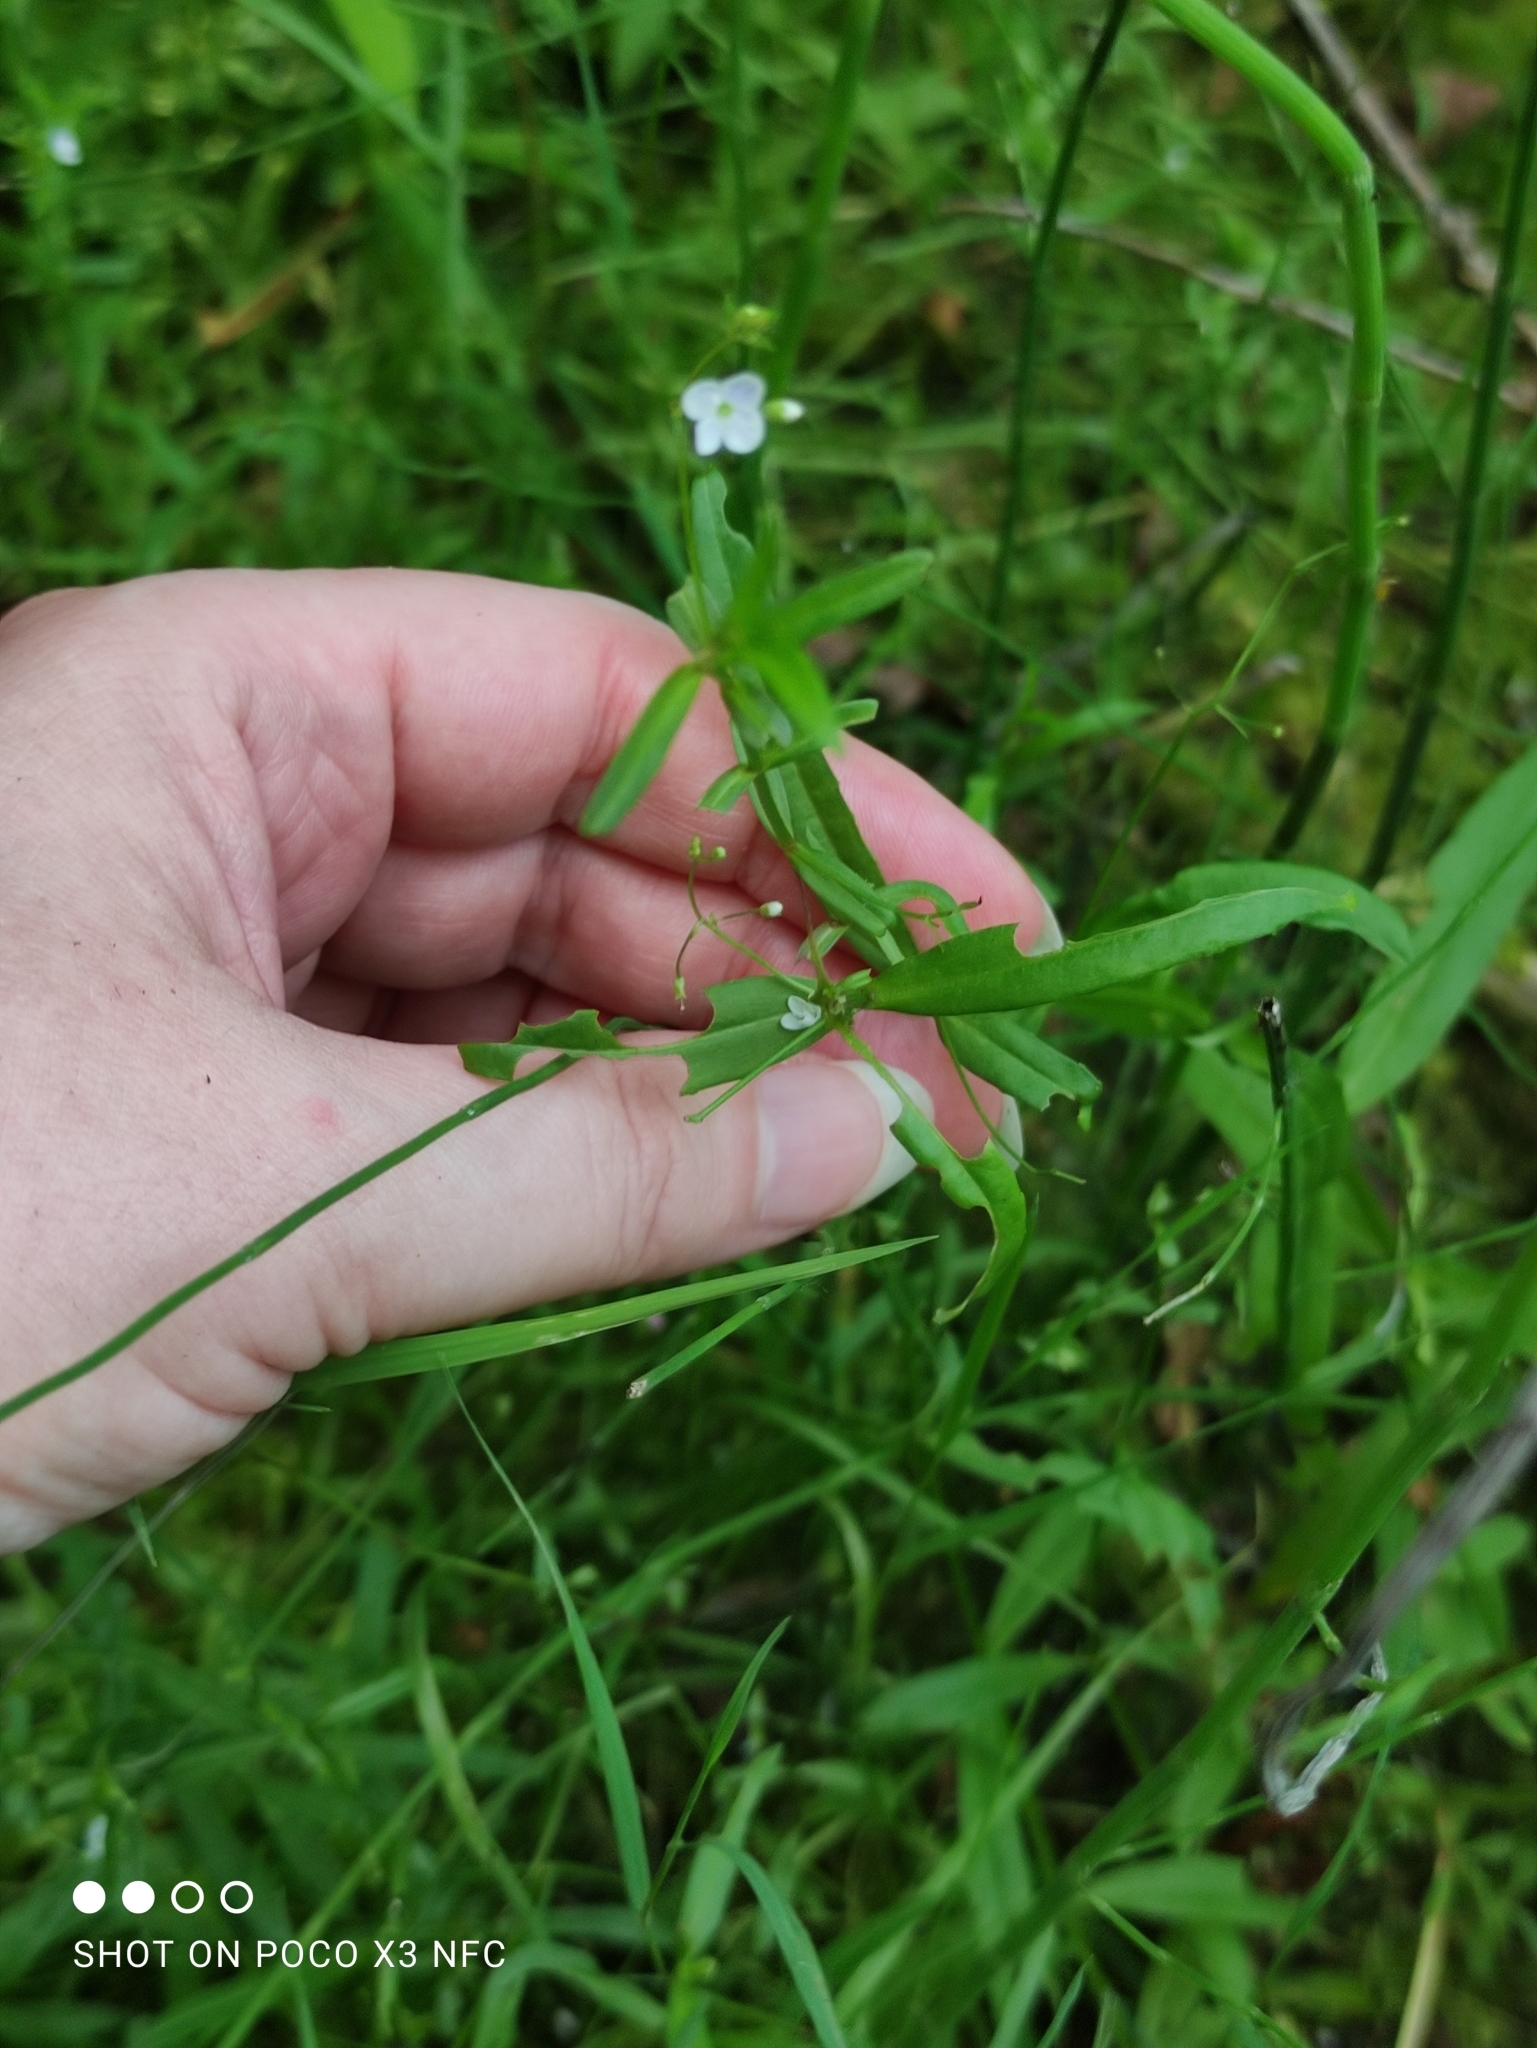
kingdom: Plantae
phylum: Tracheophyta
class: Magnoliopsida
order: Lamiales
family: Plantaginaceae
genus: Veronica
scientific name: Veronica scutellata
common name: Marsh speedwell
